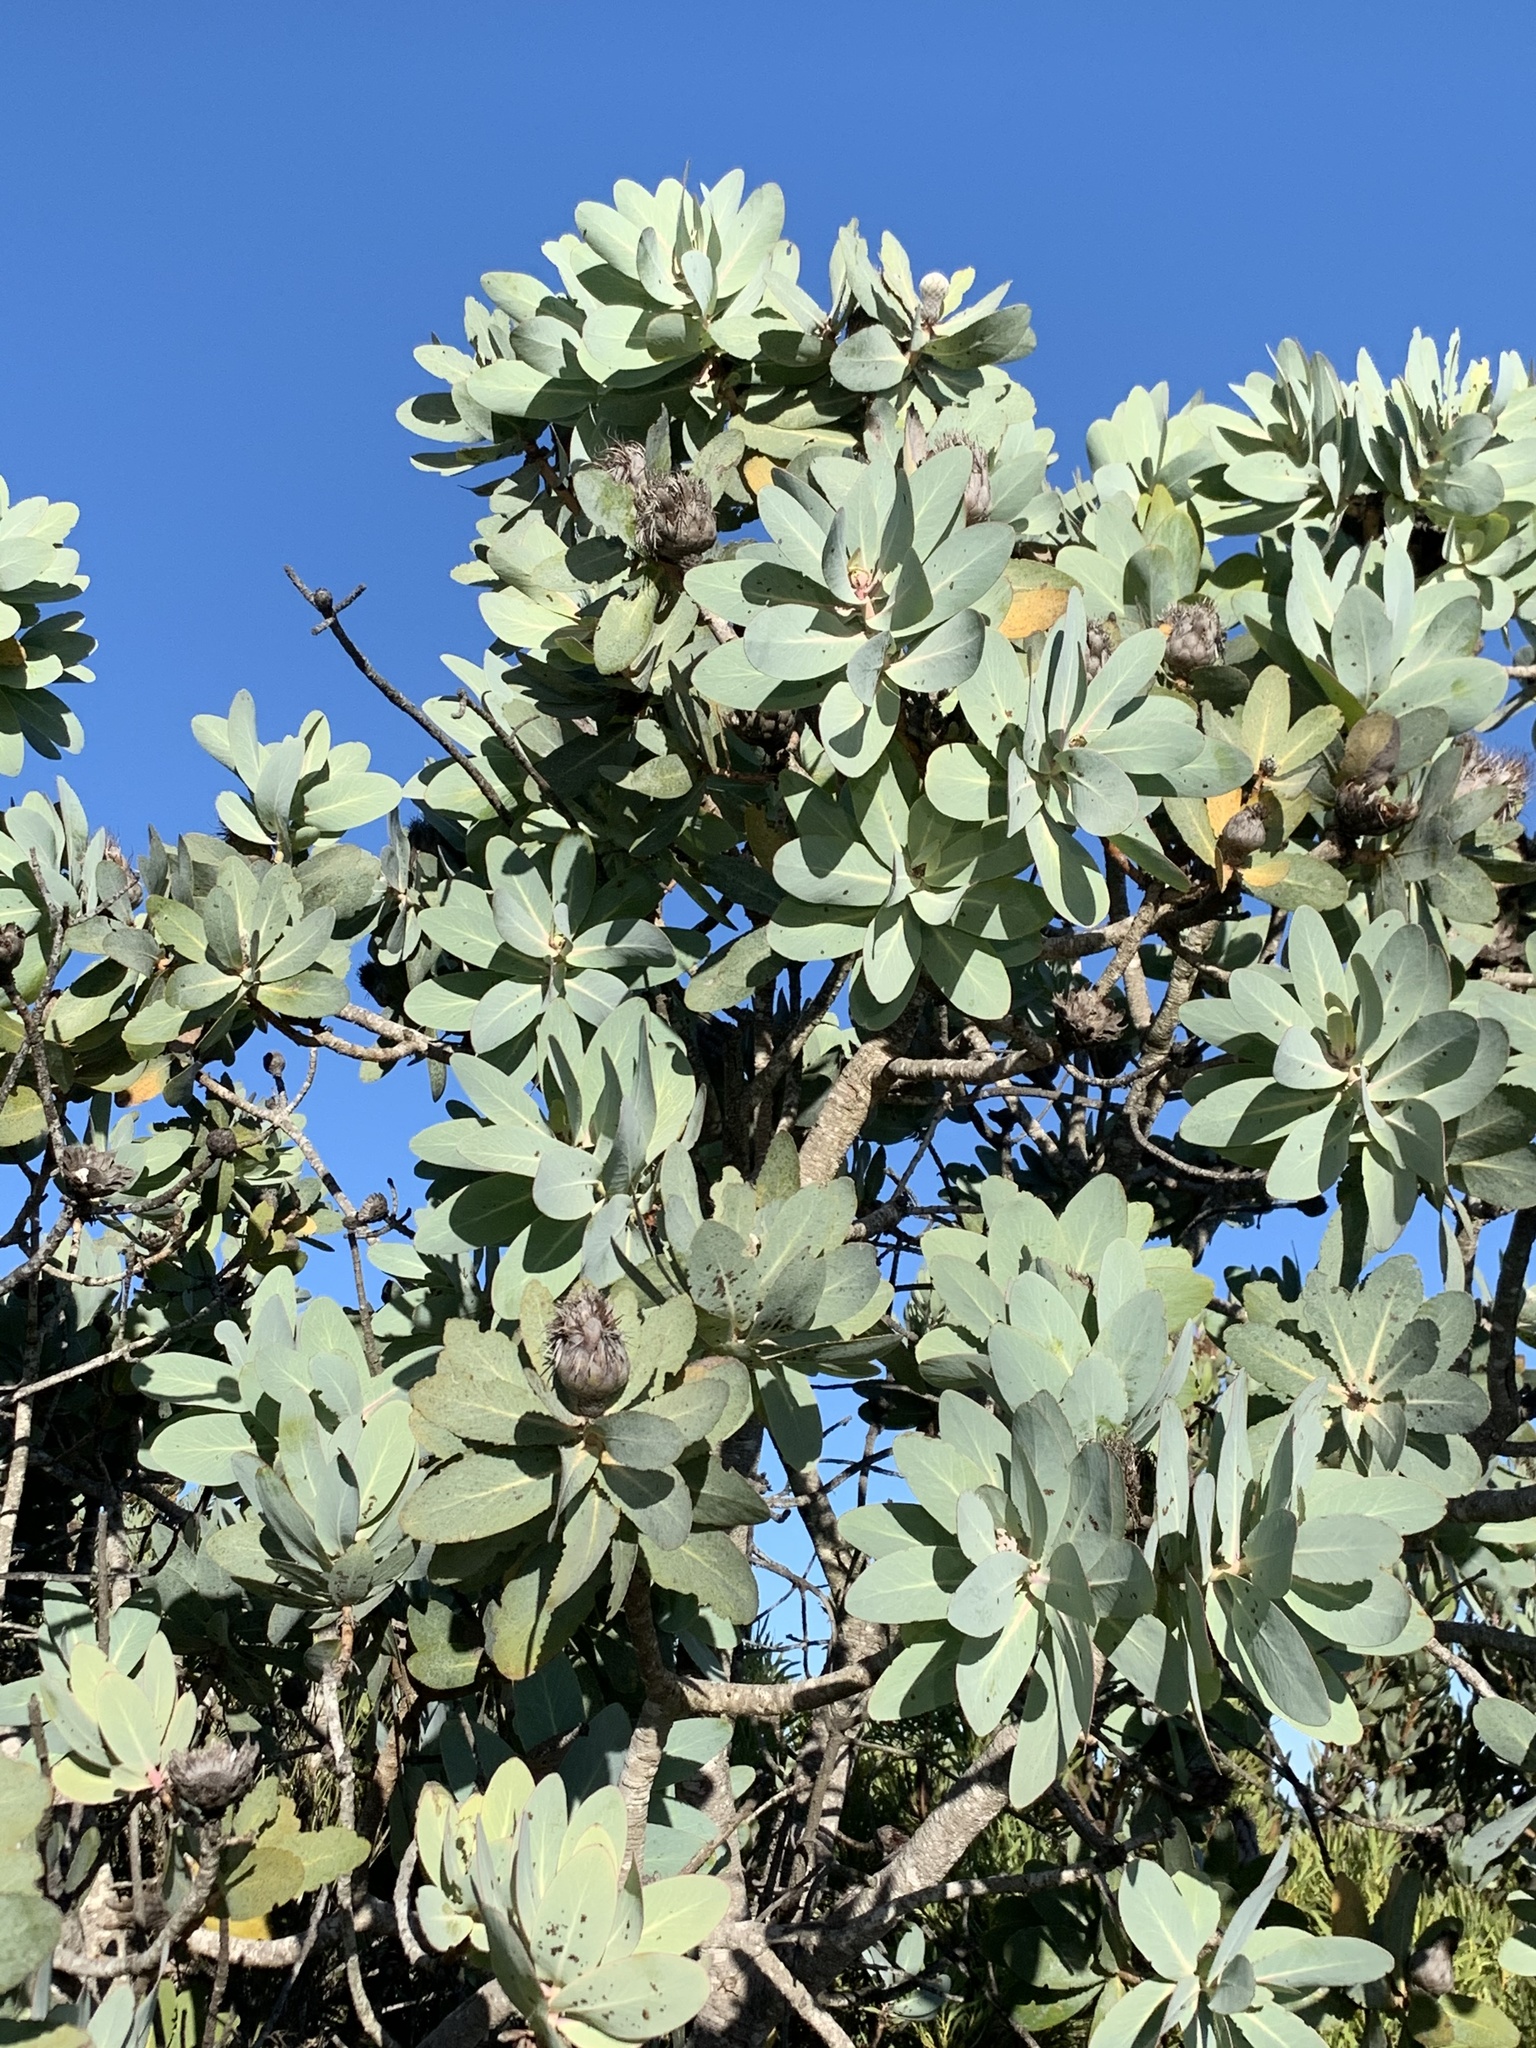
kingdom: Plantae
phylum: Tracheophyta
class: Magnoliopsida
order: Proteales
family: Proteaceae
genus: Protea
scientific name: Protea nitida
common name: Tree protea
